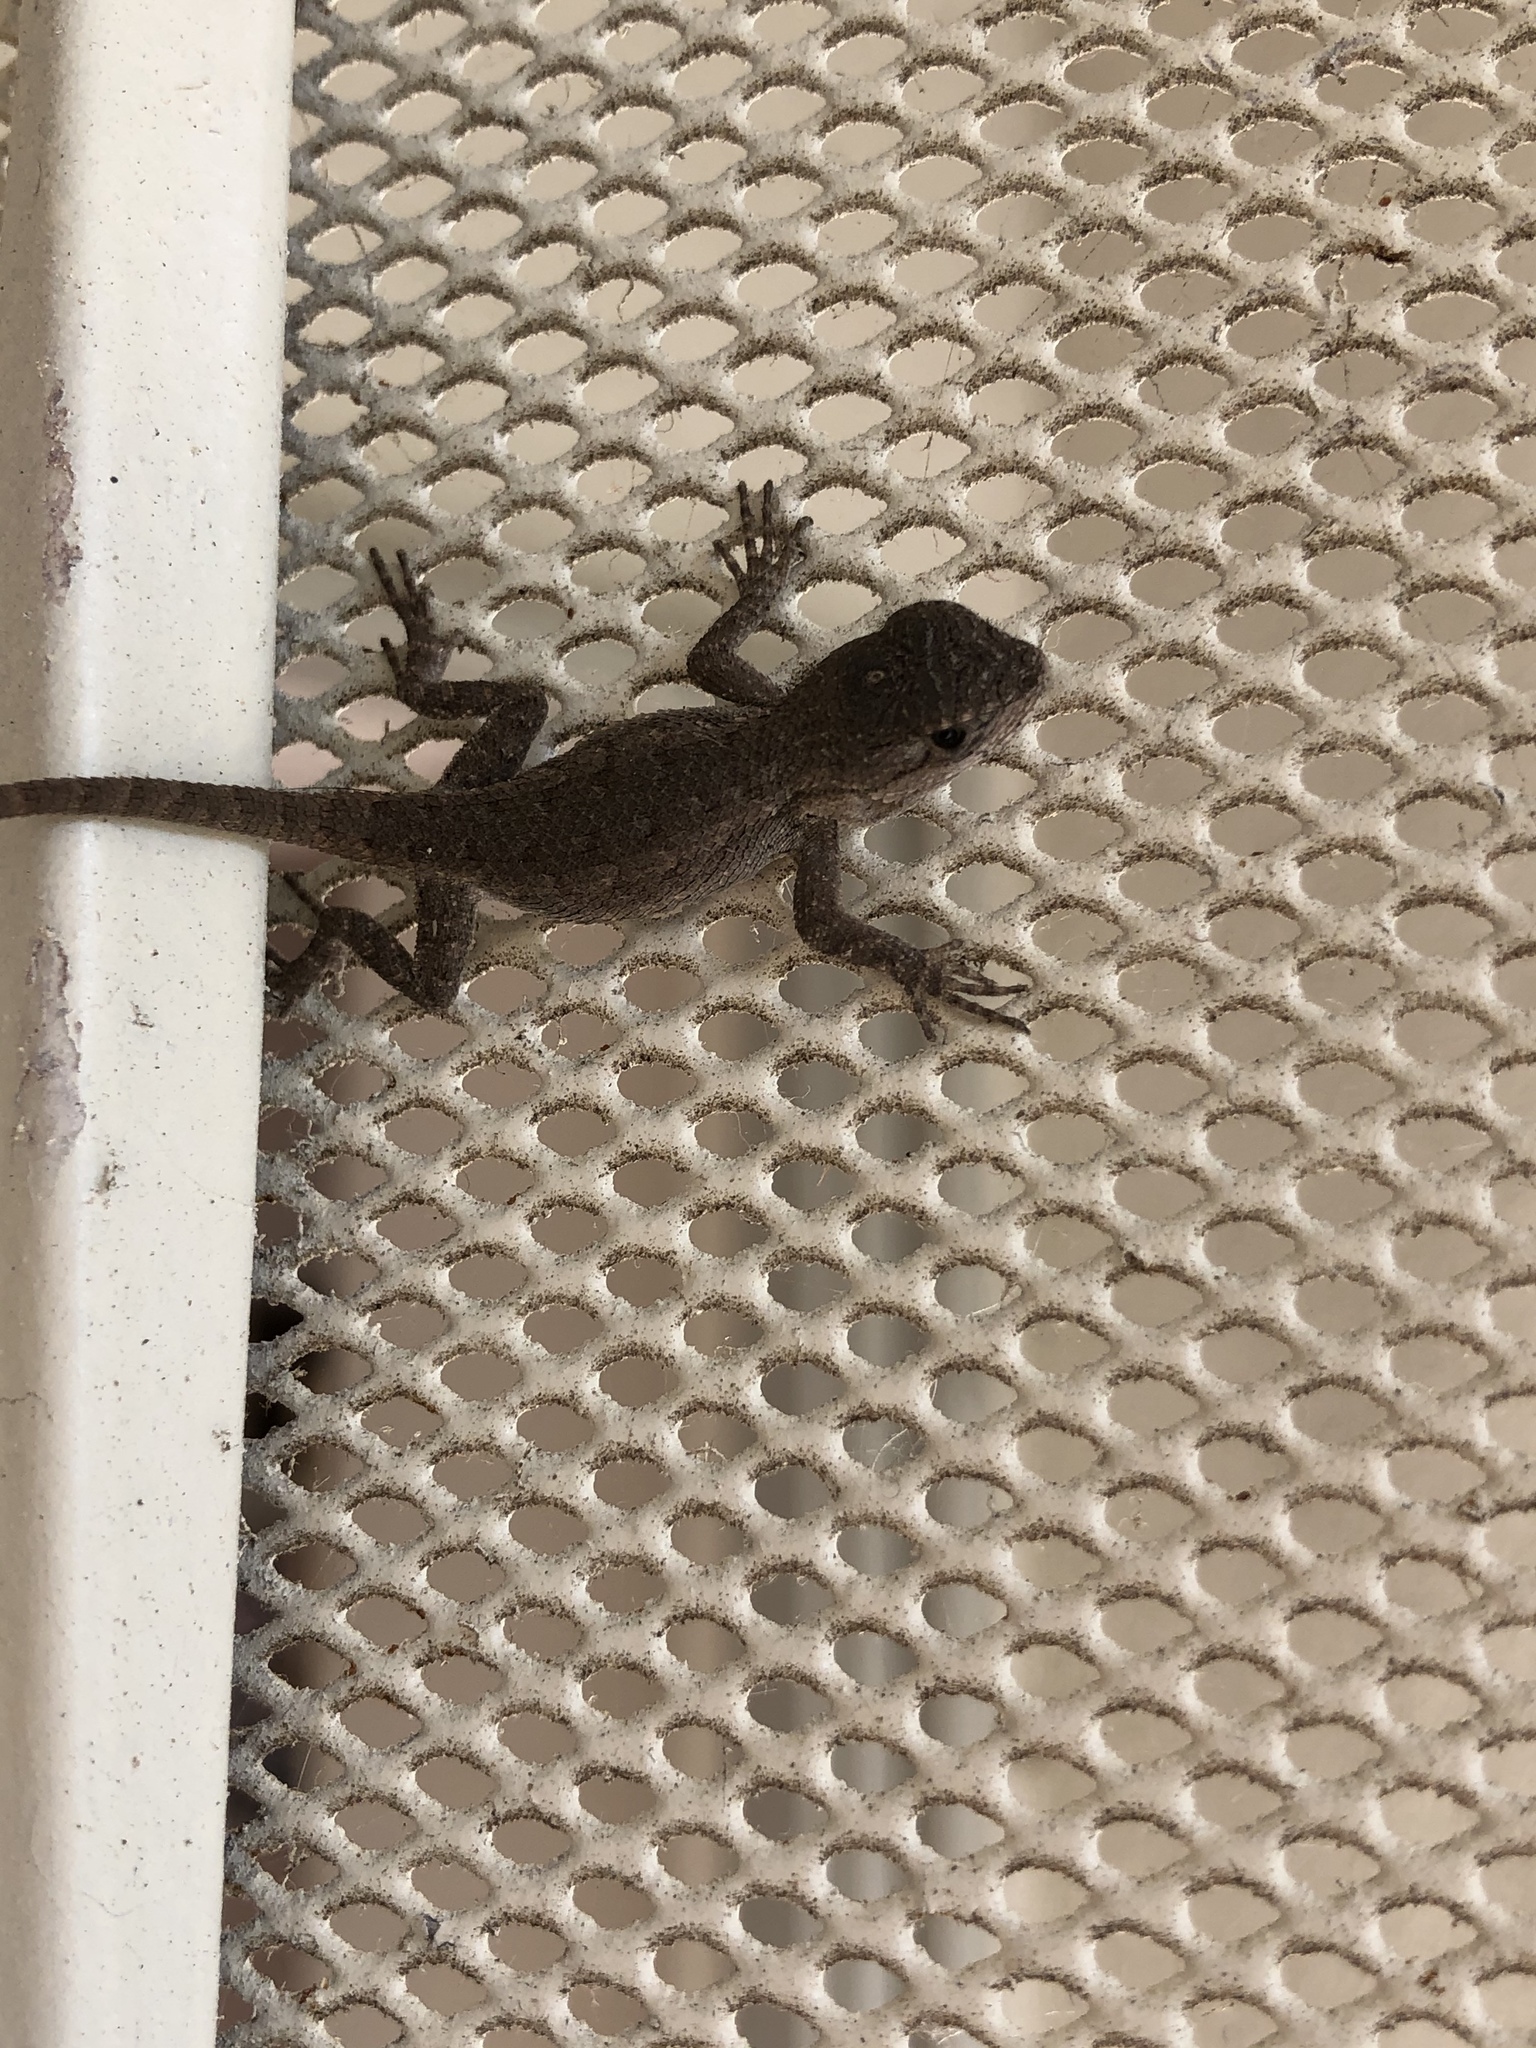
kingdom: Animalia
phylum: Chordata
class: Squamata
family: Phrynosomatidae
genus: Sceloporus
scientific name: Sceloporus occidentalis
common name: Western fence lizard
